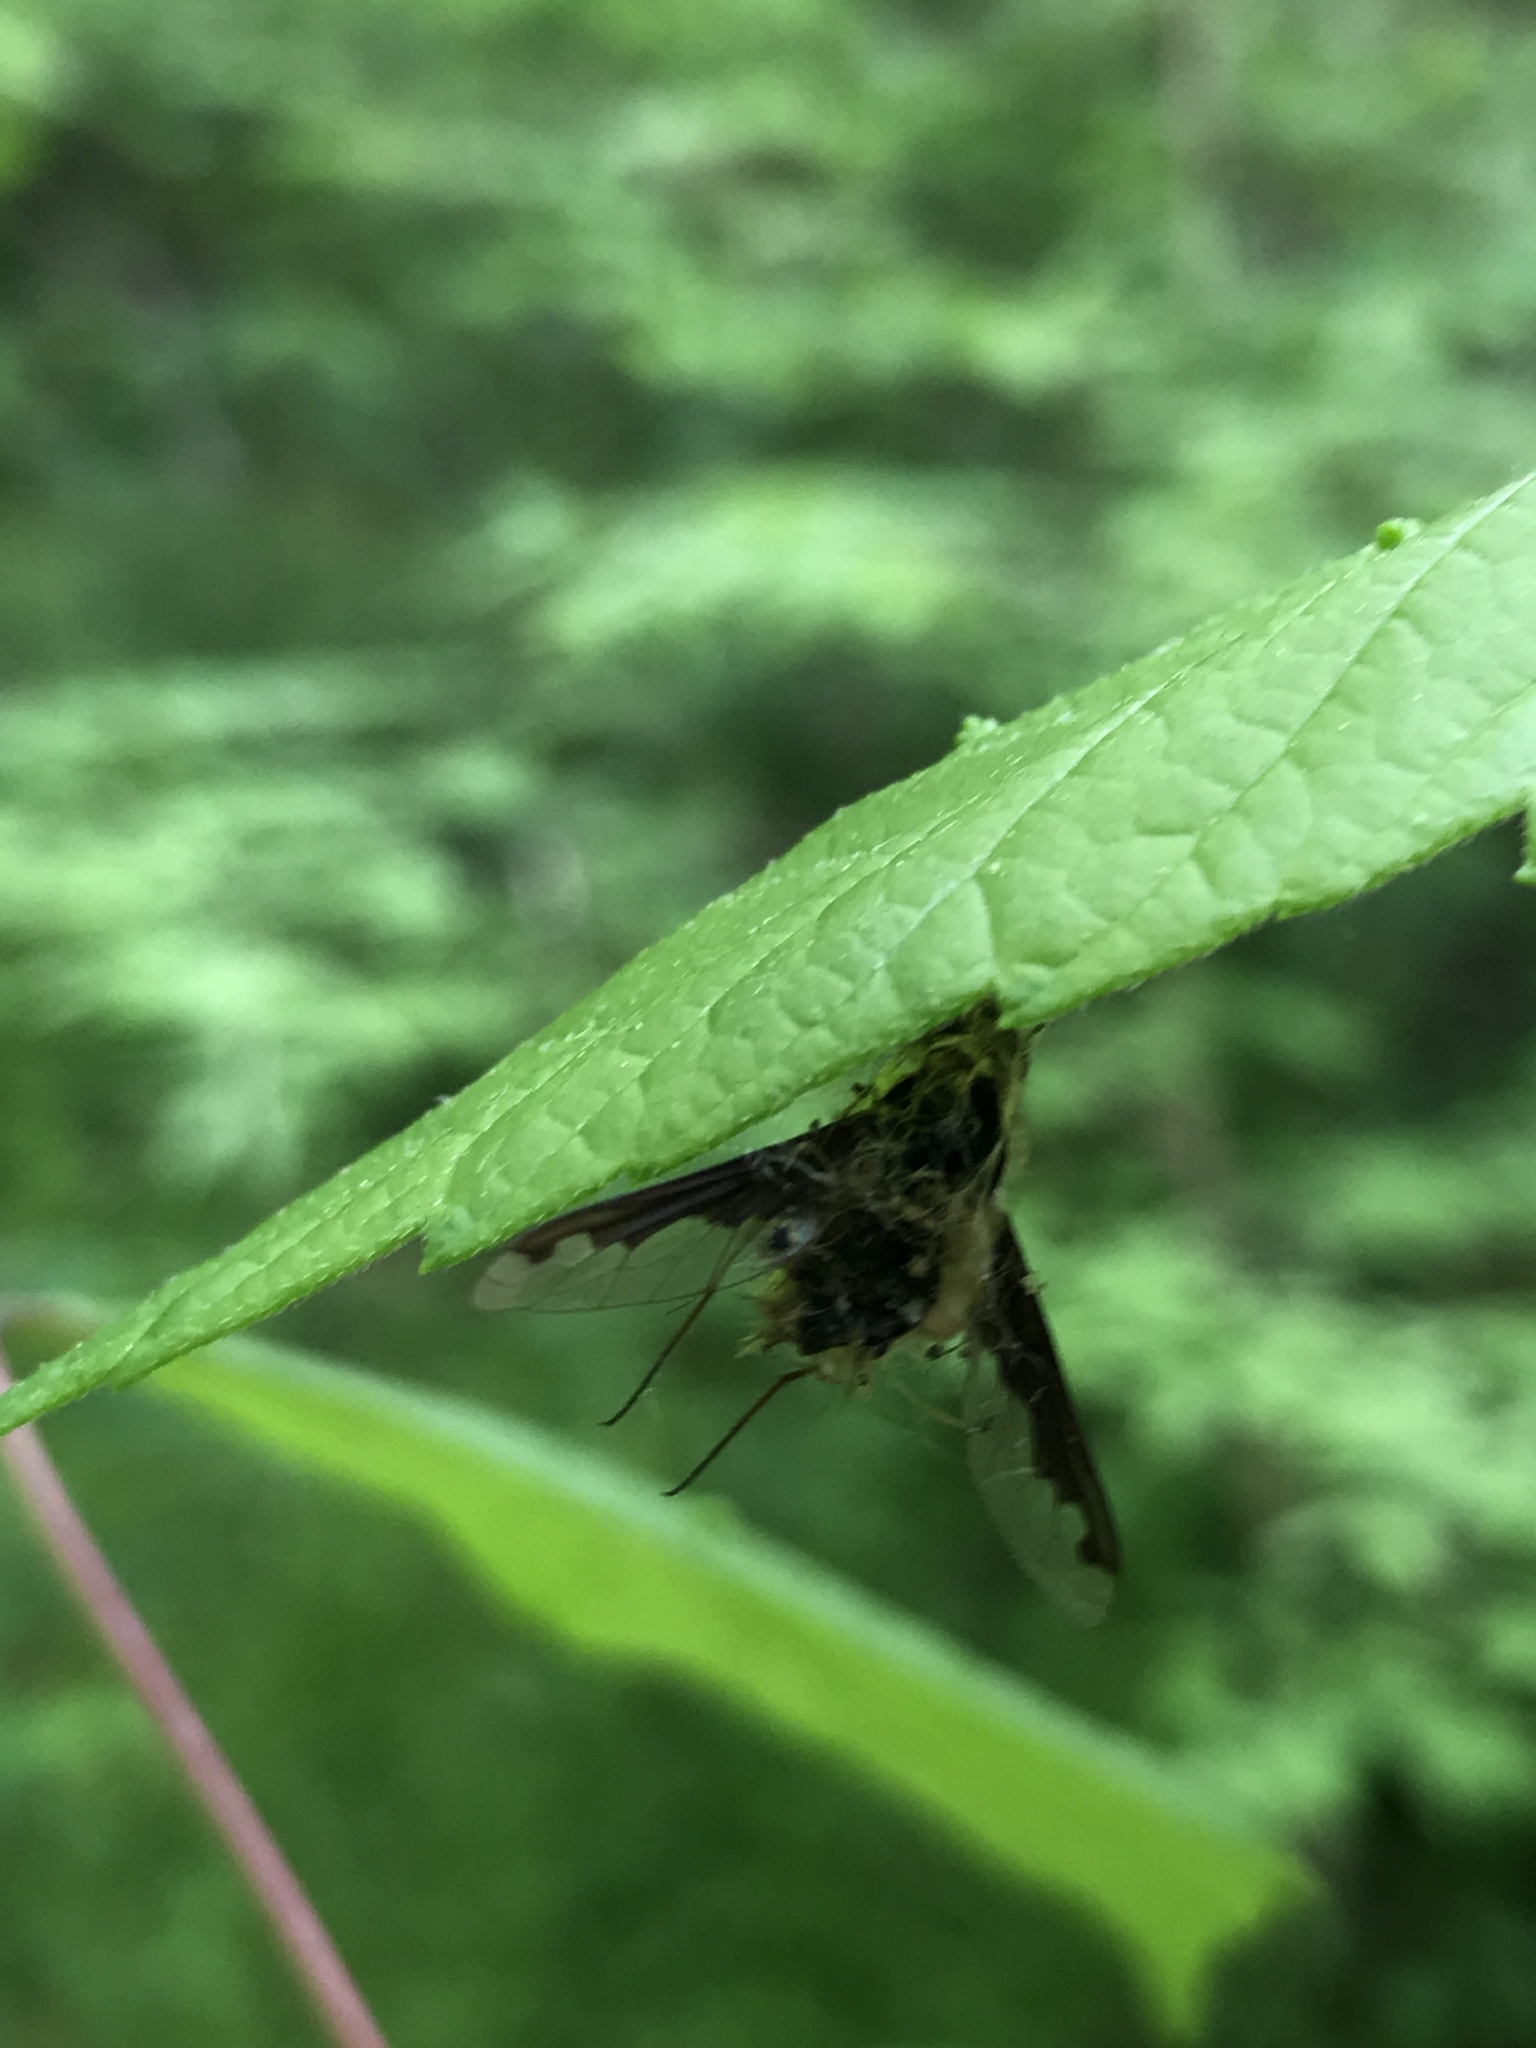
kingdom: Animalia
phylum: Arthropoda
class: Insecta
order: Diptera
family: Bombyliidae
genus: Bombylius
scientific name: Bombylius major
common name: Bee fly
